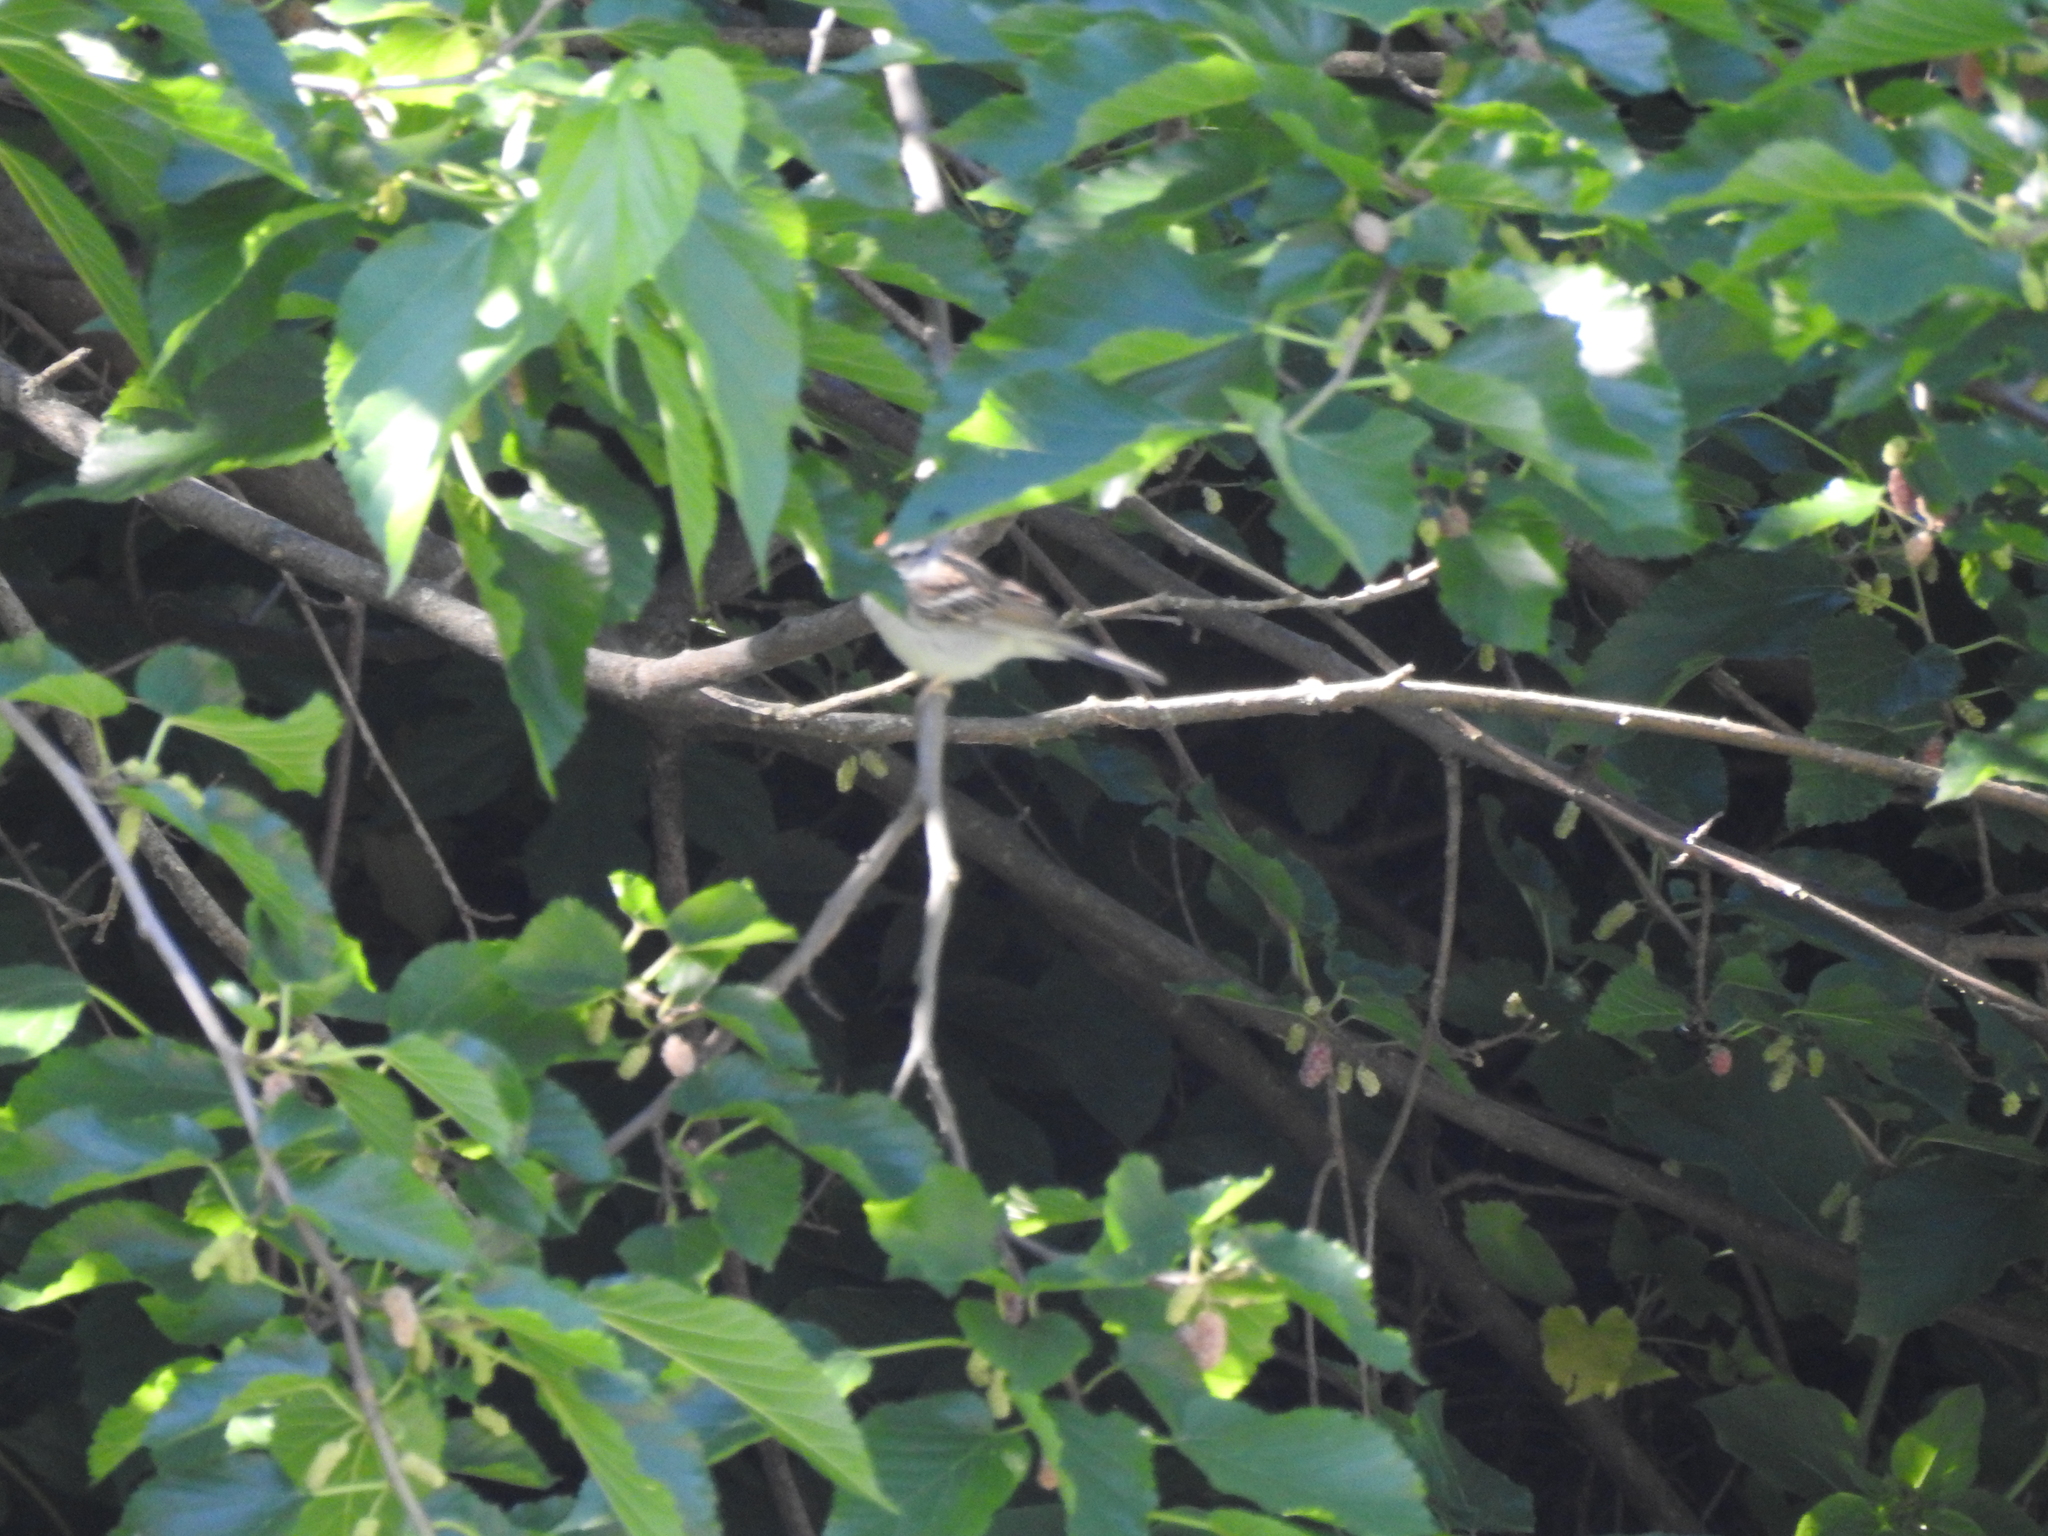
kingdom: Animalia
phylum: Chordata
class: Aves
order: Passeriformes
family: Passerellidae
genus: Spizella
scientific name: Spizella passerina
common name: Chipping sparrow
